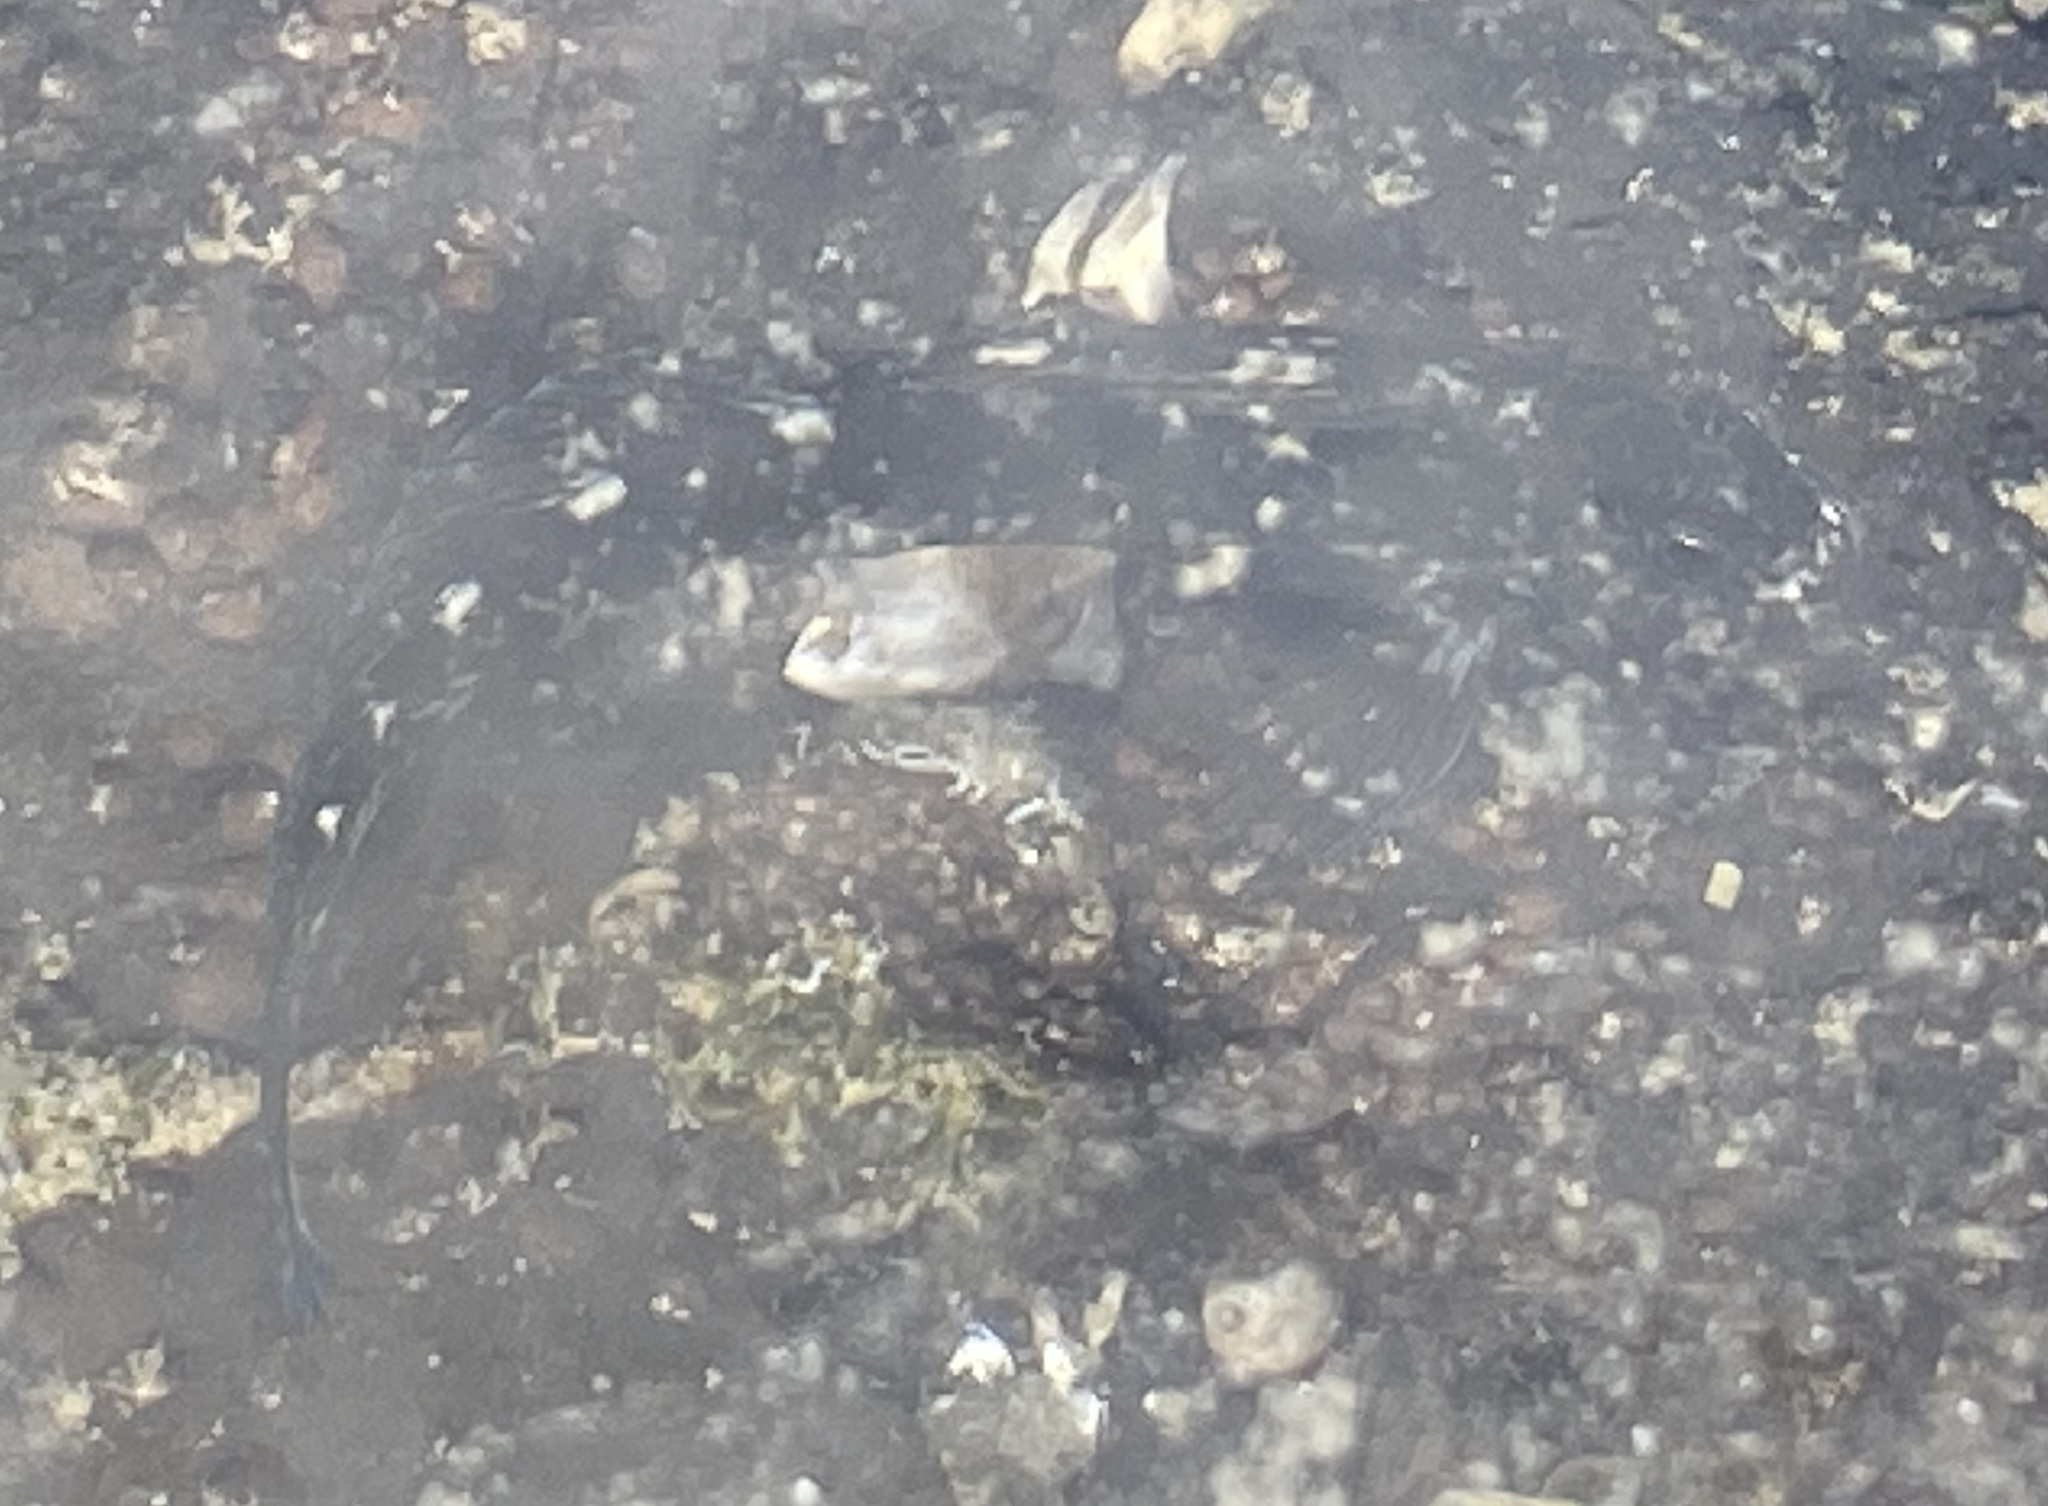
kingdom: Animalia
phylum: Chordata
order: Perciformes
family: Blenniidae
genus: Istiblennius
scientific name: Istiblennius zebra
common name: Zebra blenny
